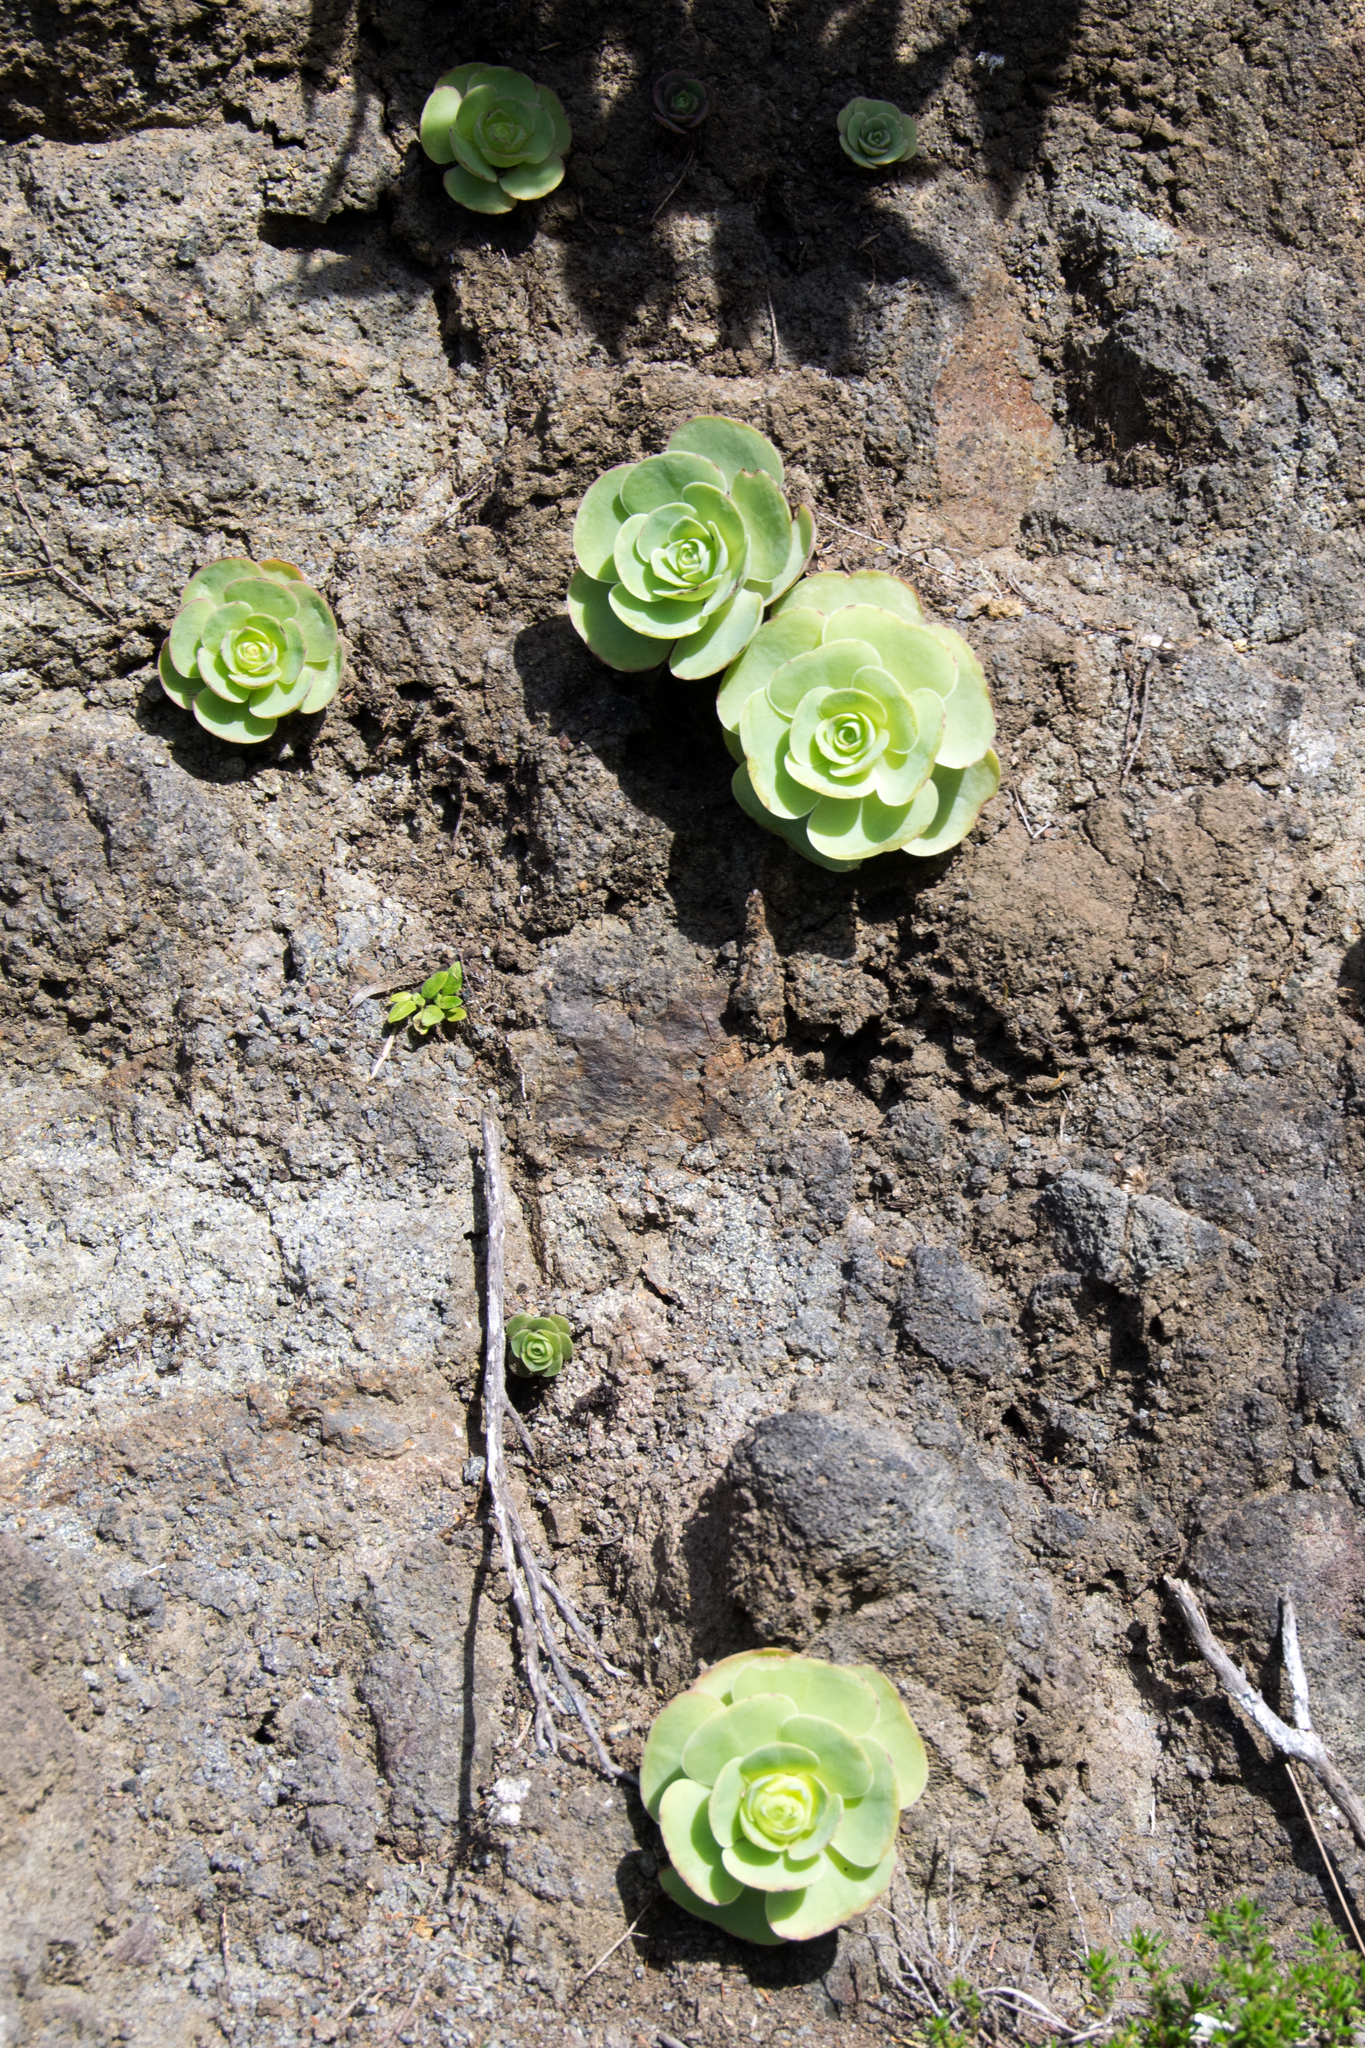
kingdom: Plantae
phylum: Tracheophyta
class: Magnoliopsida
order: Saxifragales
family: Crassulaceae
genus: Aeonium
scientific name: Aeonium diplocyclum
